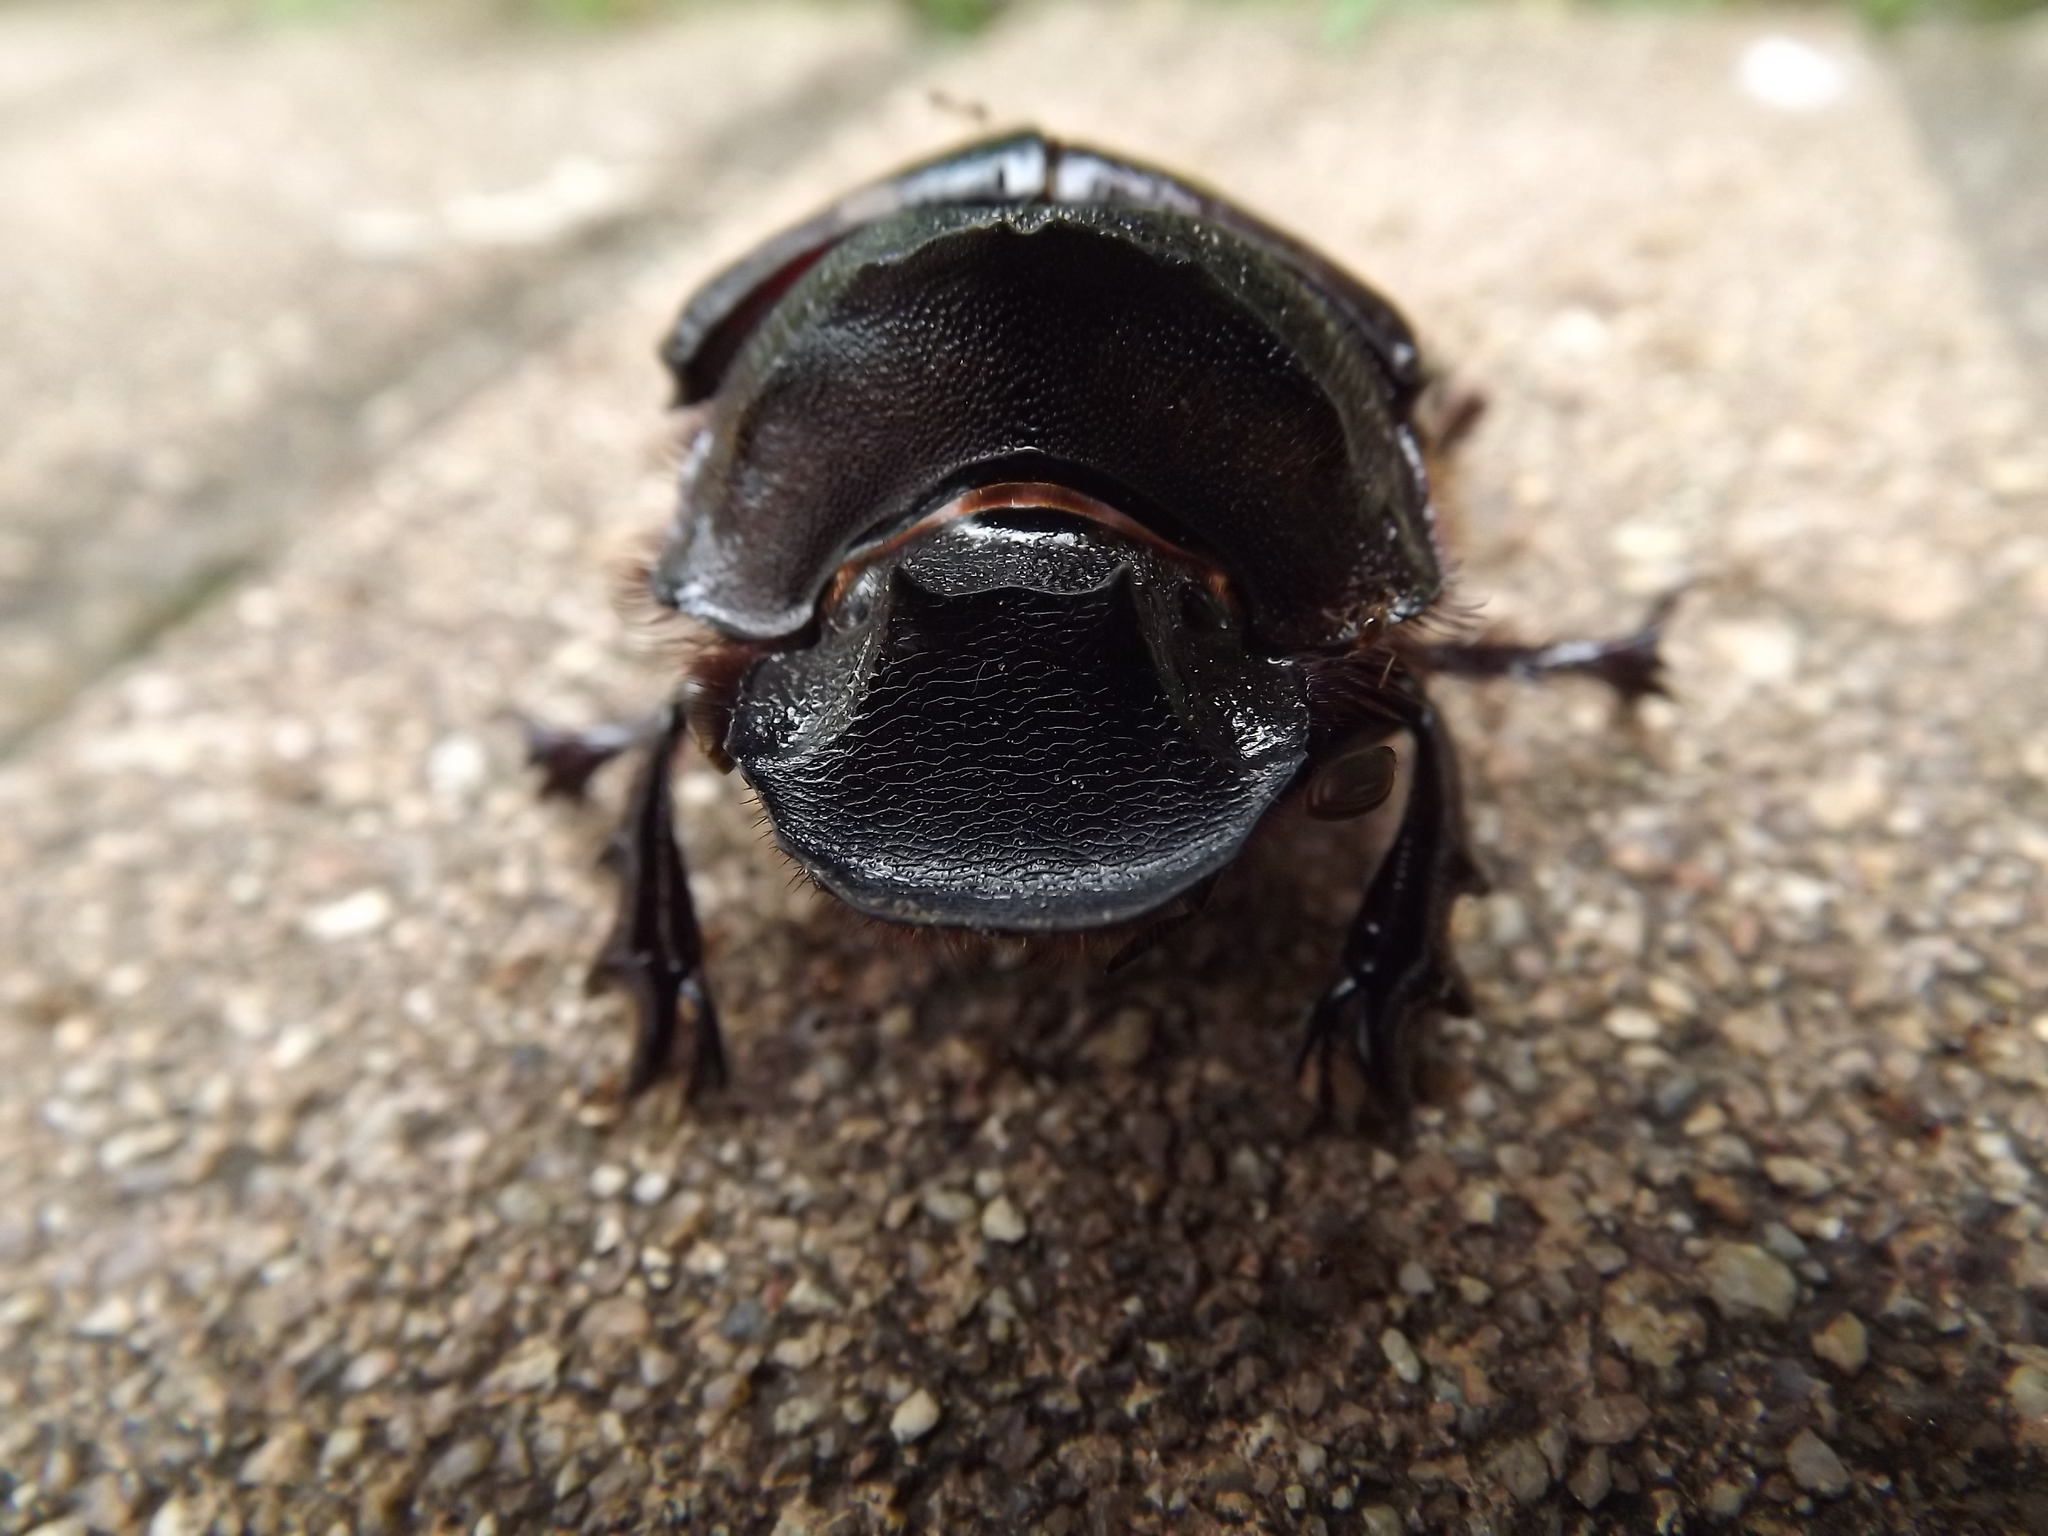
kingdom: Animalia
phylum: Arthropoda
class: Insecta
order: Coleoptera
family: Scarabaeidae
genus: Heliocopris
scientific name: Heliocopris faunus
